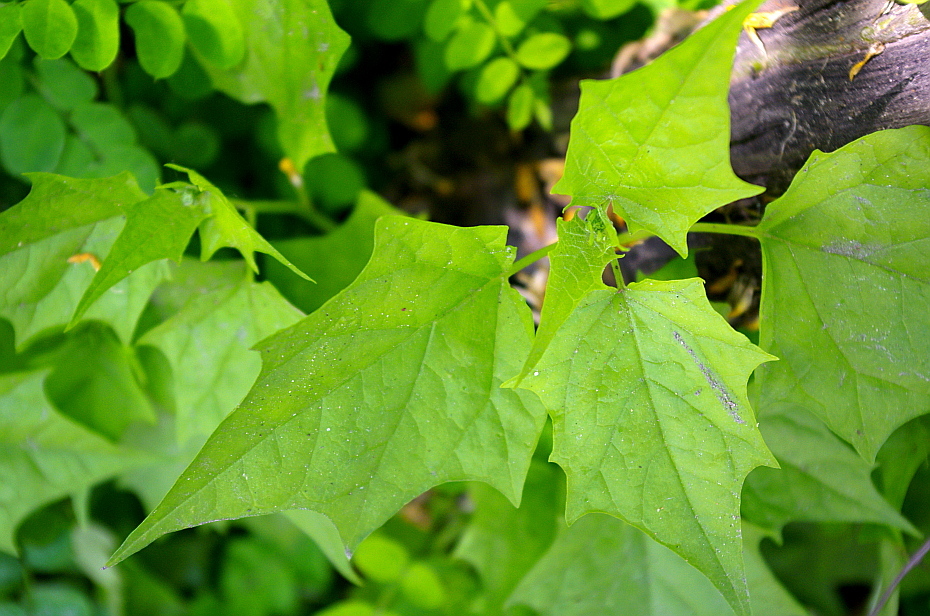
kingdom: Plantae
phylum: Tracheophyta
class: Magnoliopsida
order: Caryophyllales
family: Amaranthaceae
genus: Chenopodiastrum
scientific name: Chenopodiastrum hybridum
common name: Mapleleaf goosefoot
